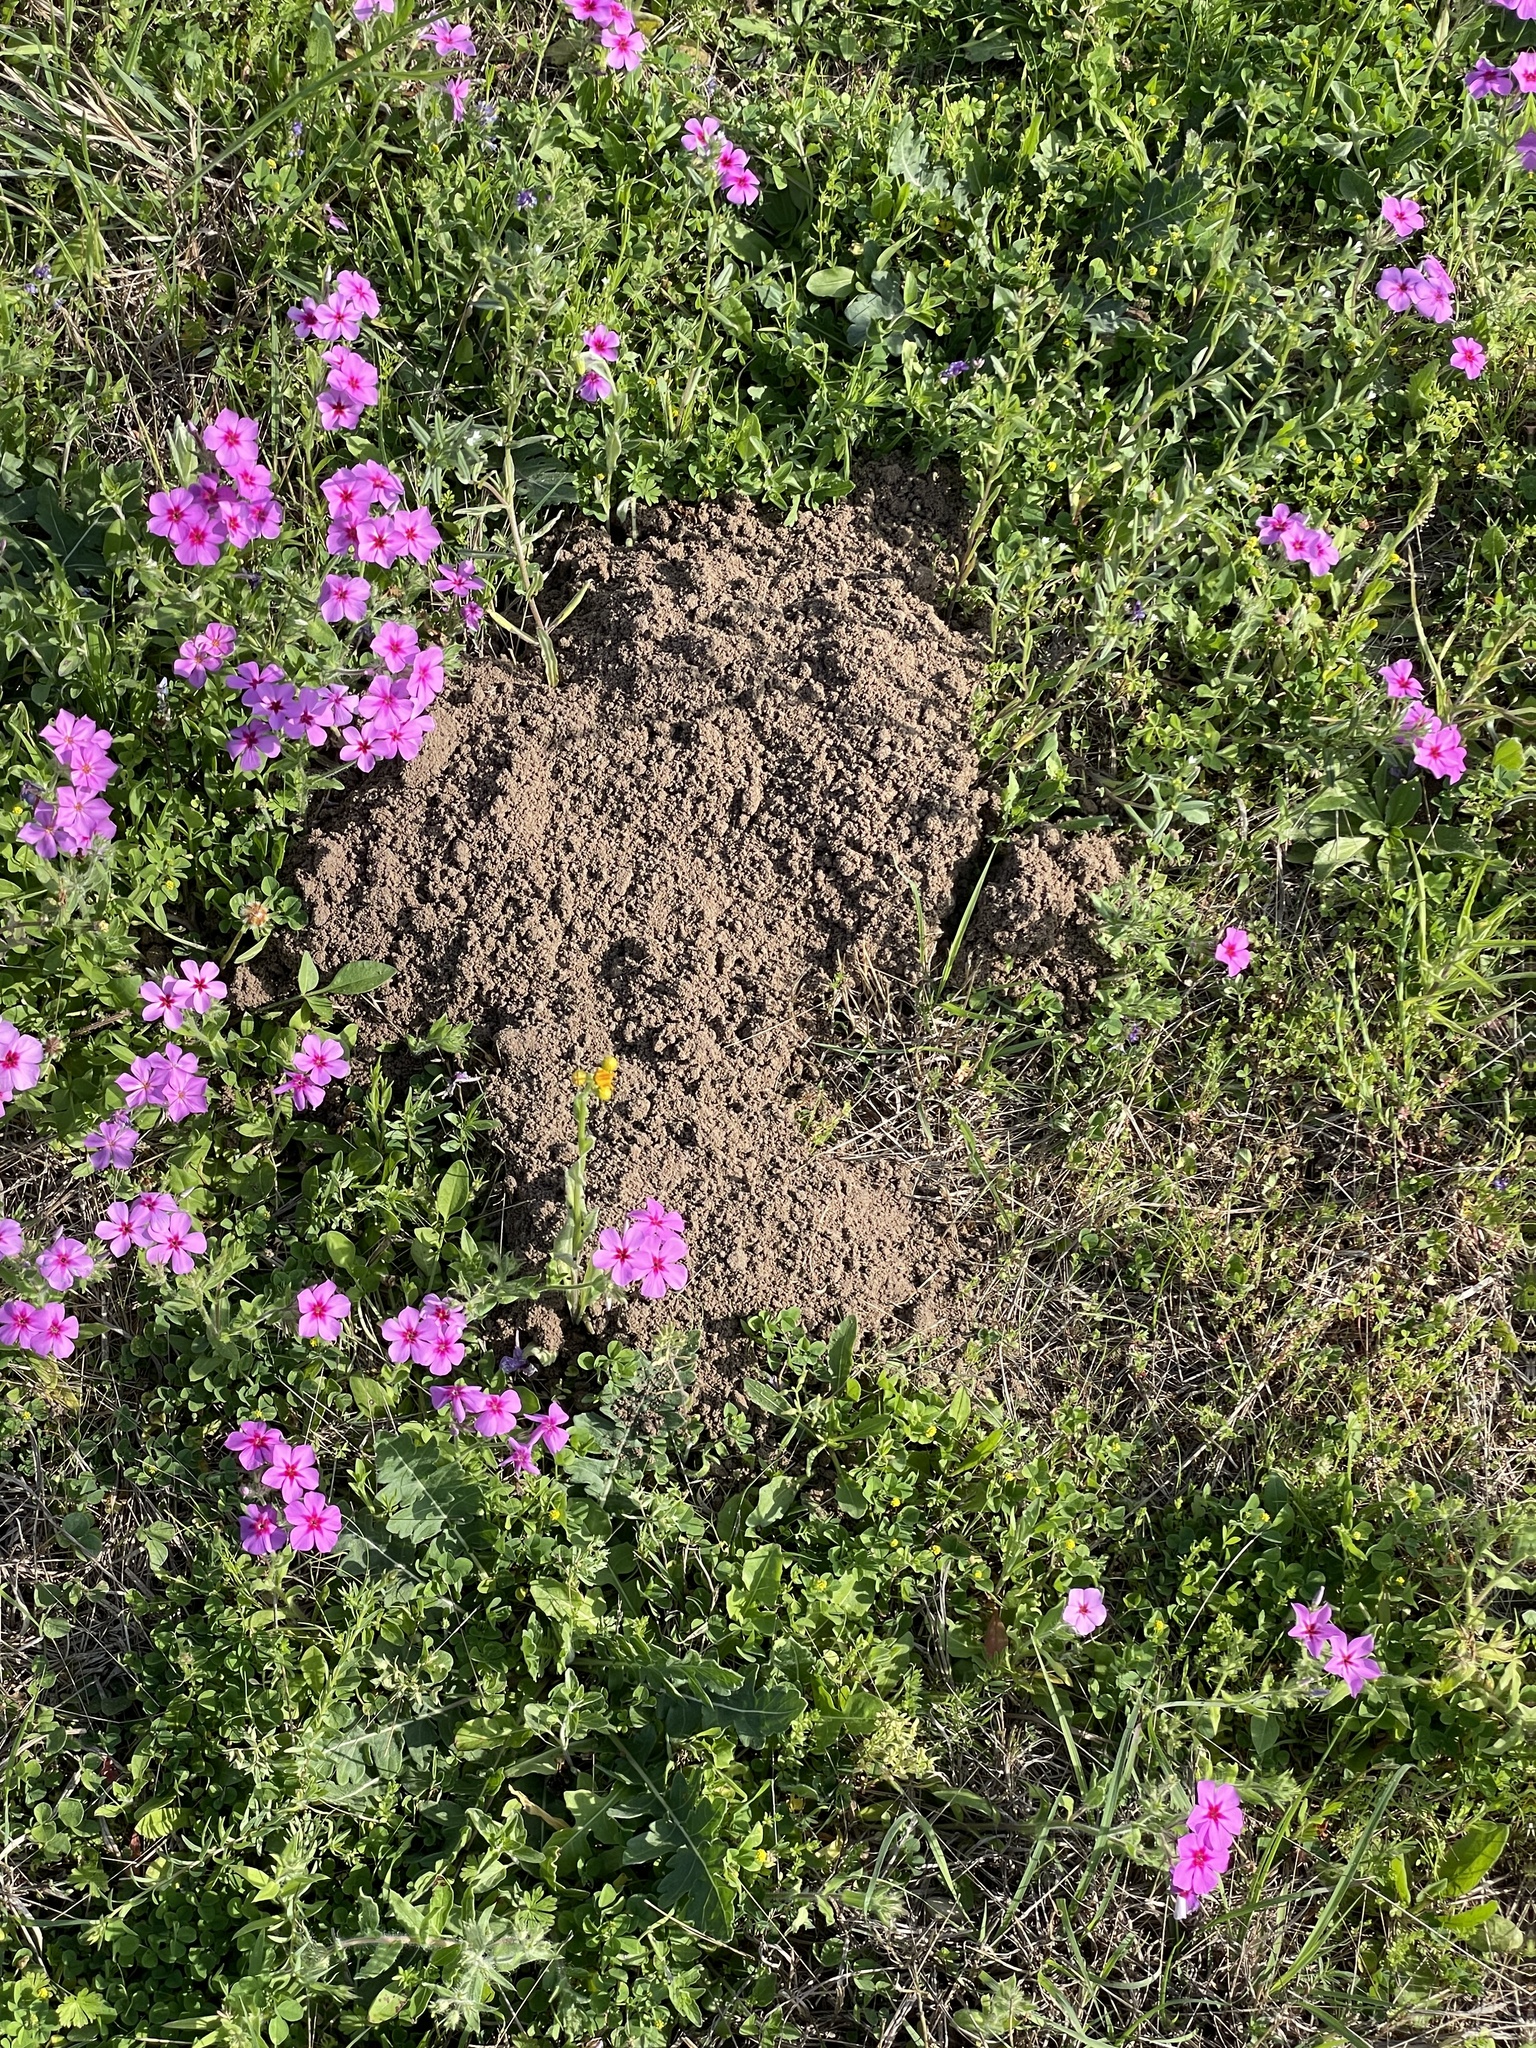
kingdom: Animalia
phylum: Chordata
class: Mammalia
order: Rodentia
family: Geomyidae
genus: Geomys
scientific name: Geomys attwateri
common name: Attwater's pocket gopher
